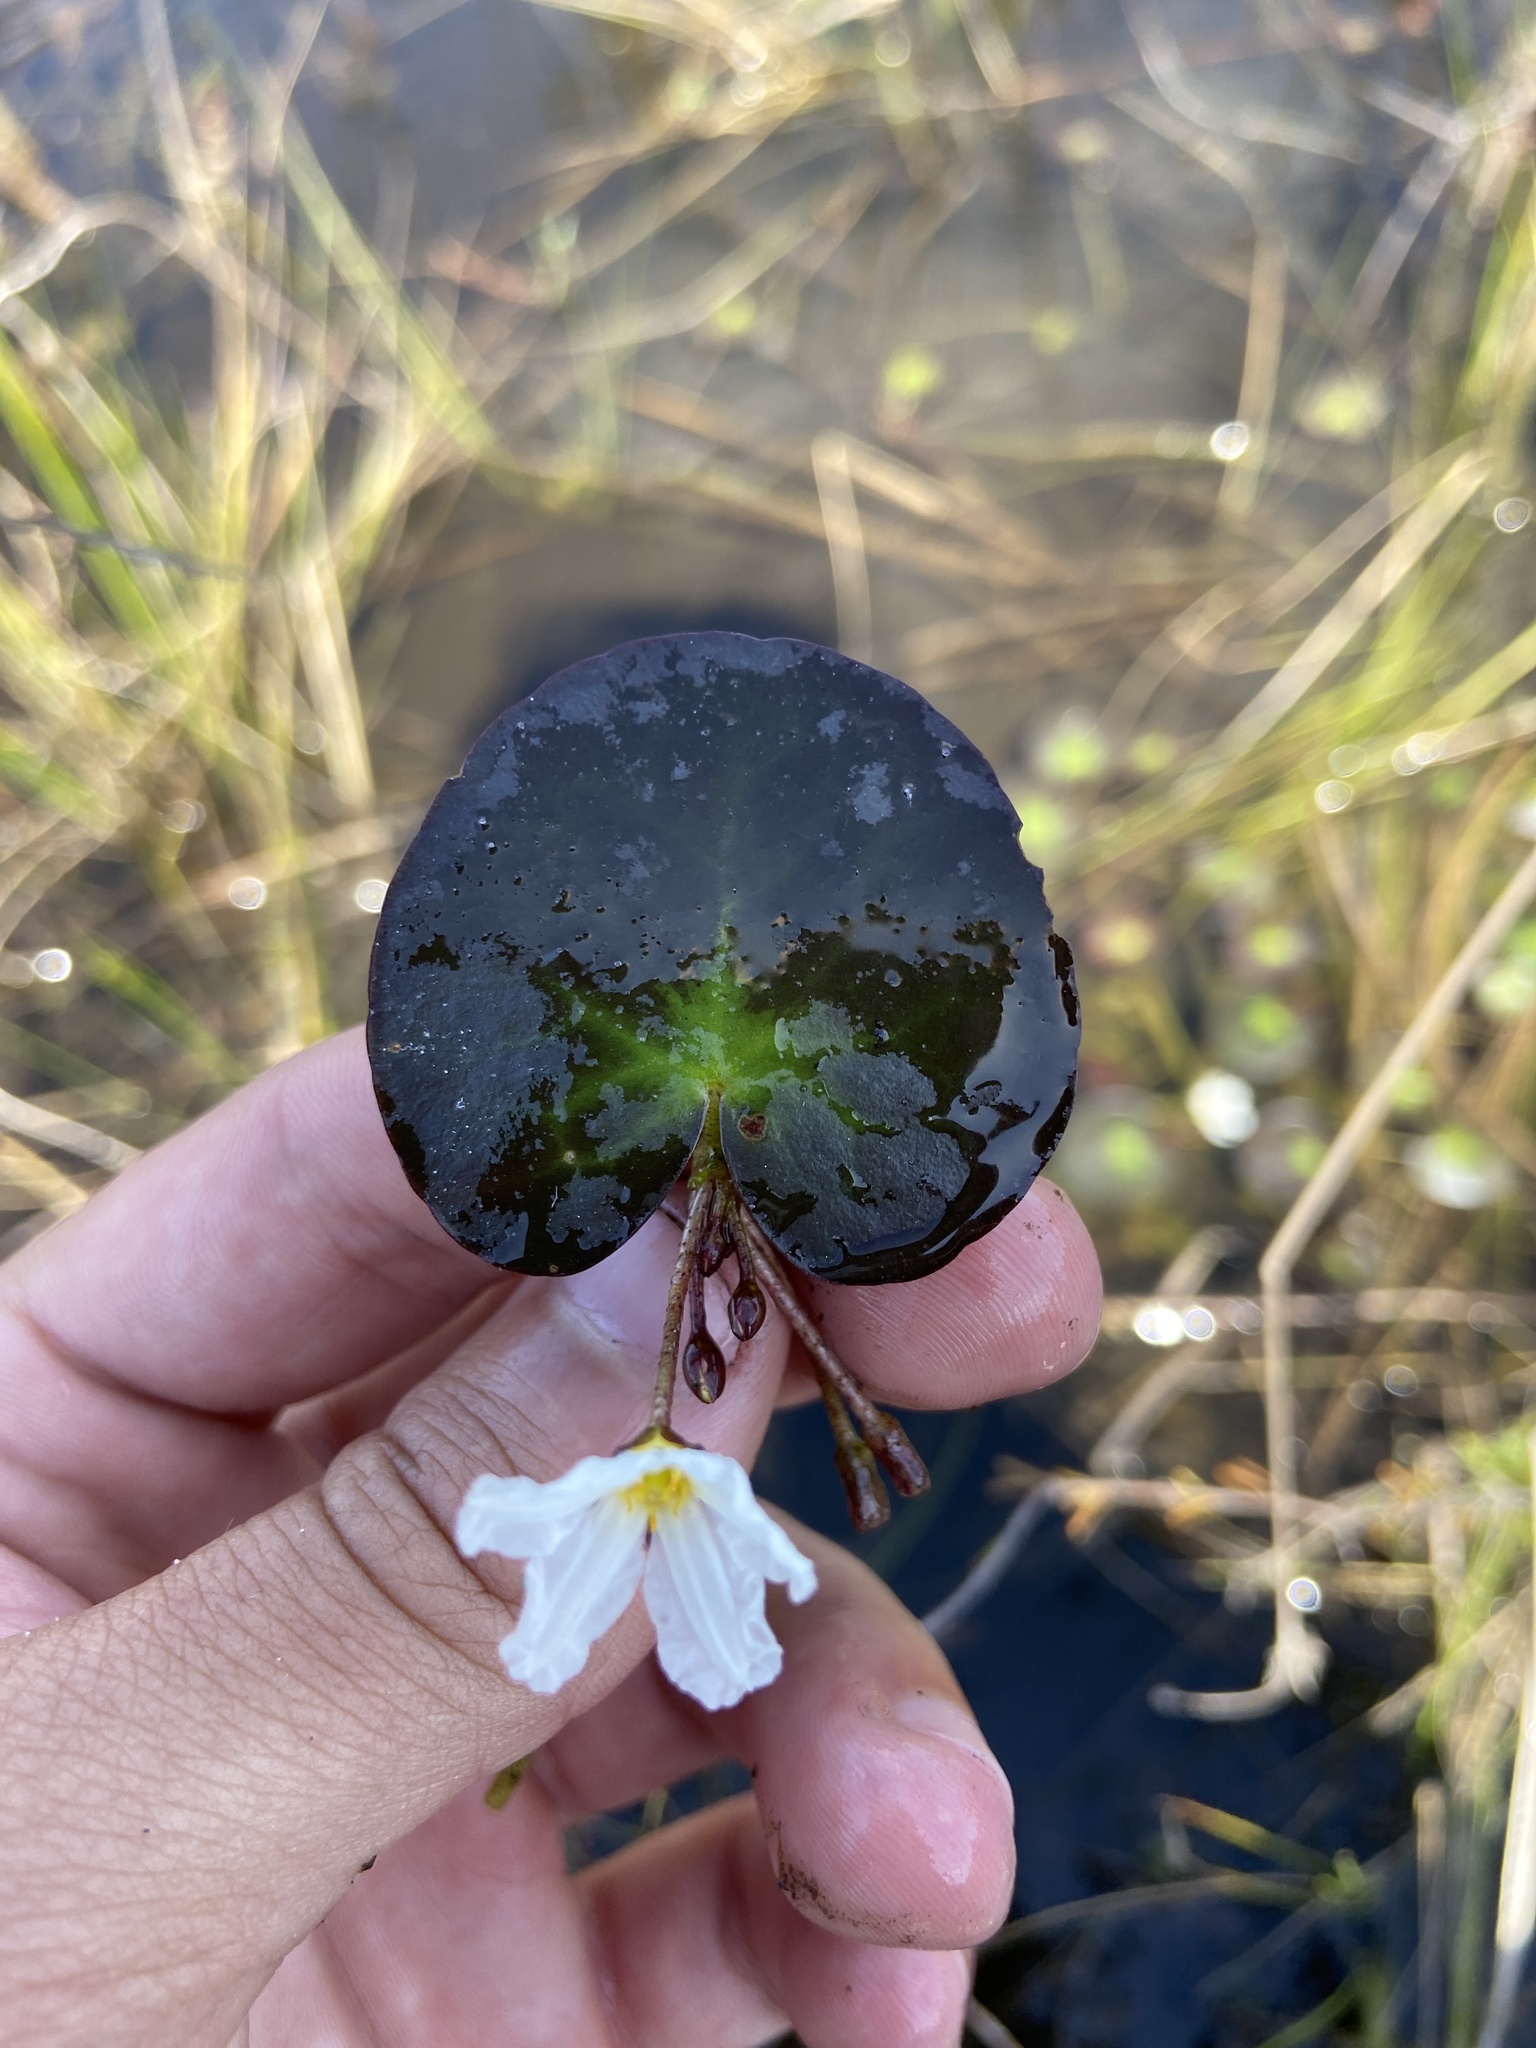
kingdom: Plantae
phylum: Tracheophyta
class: Magnoliopsida
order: Asterales
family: Menyanthaceae
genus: Nymphoides
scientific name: Nymphoides aquatica
